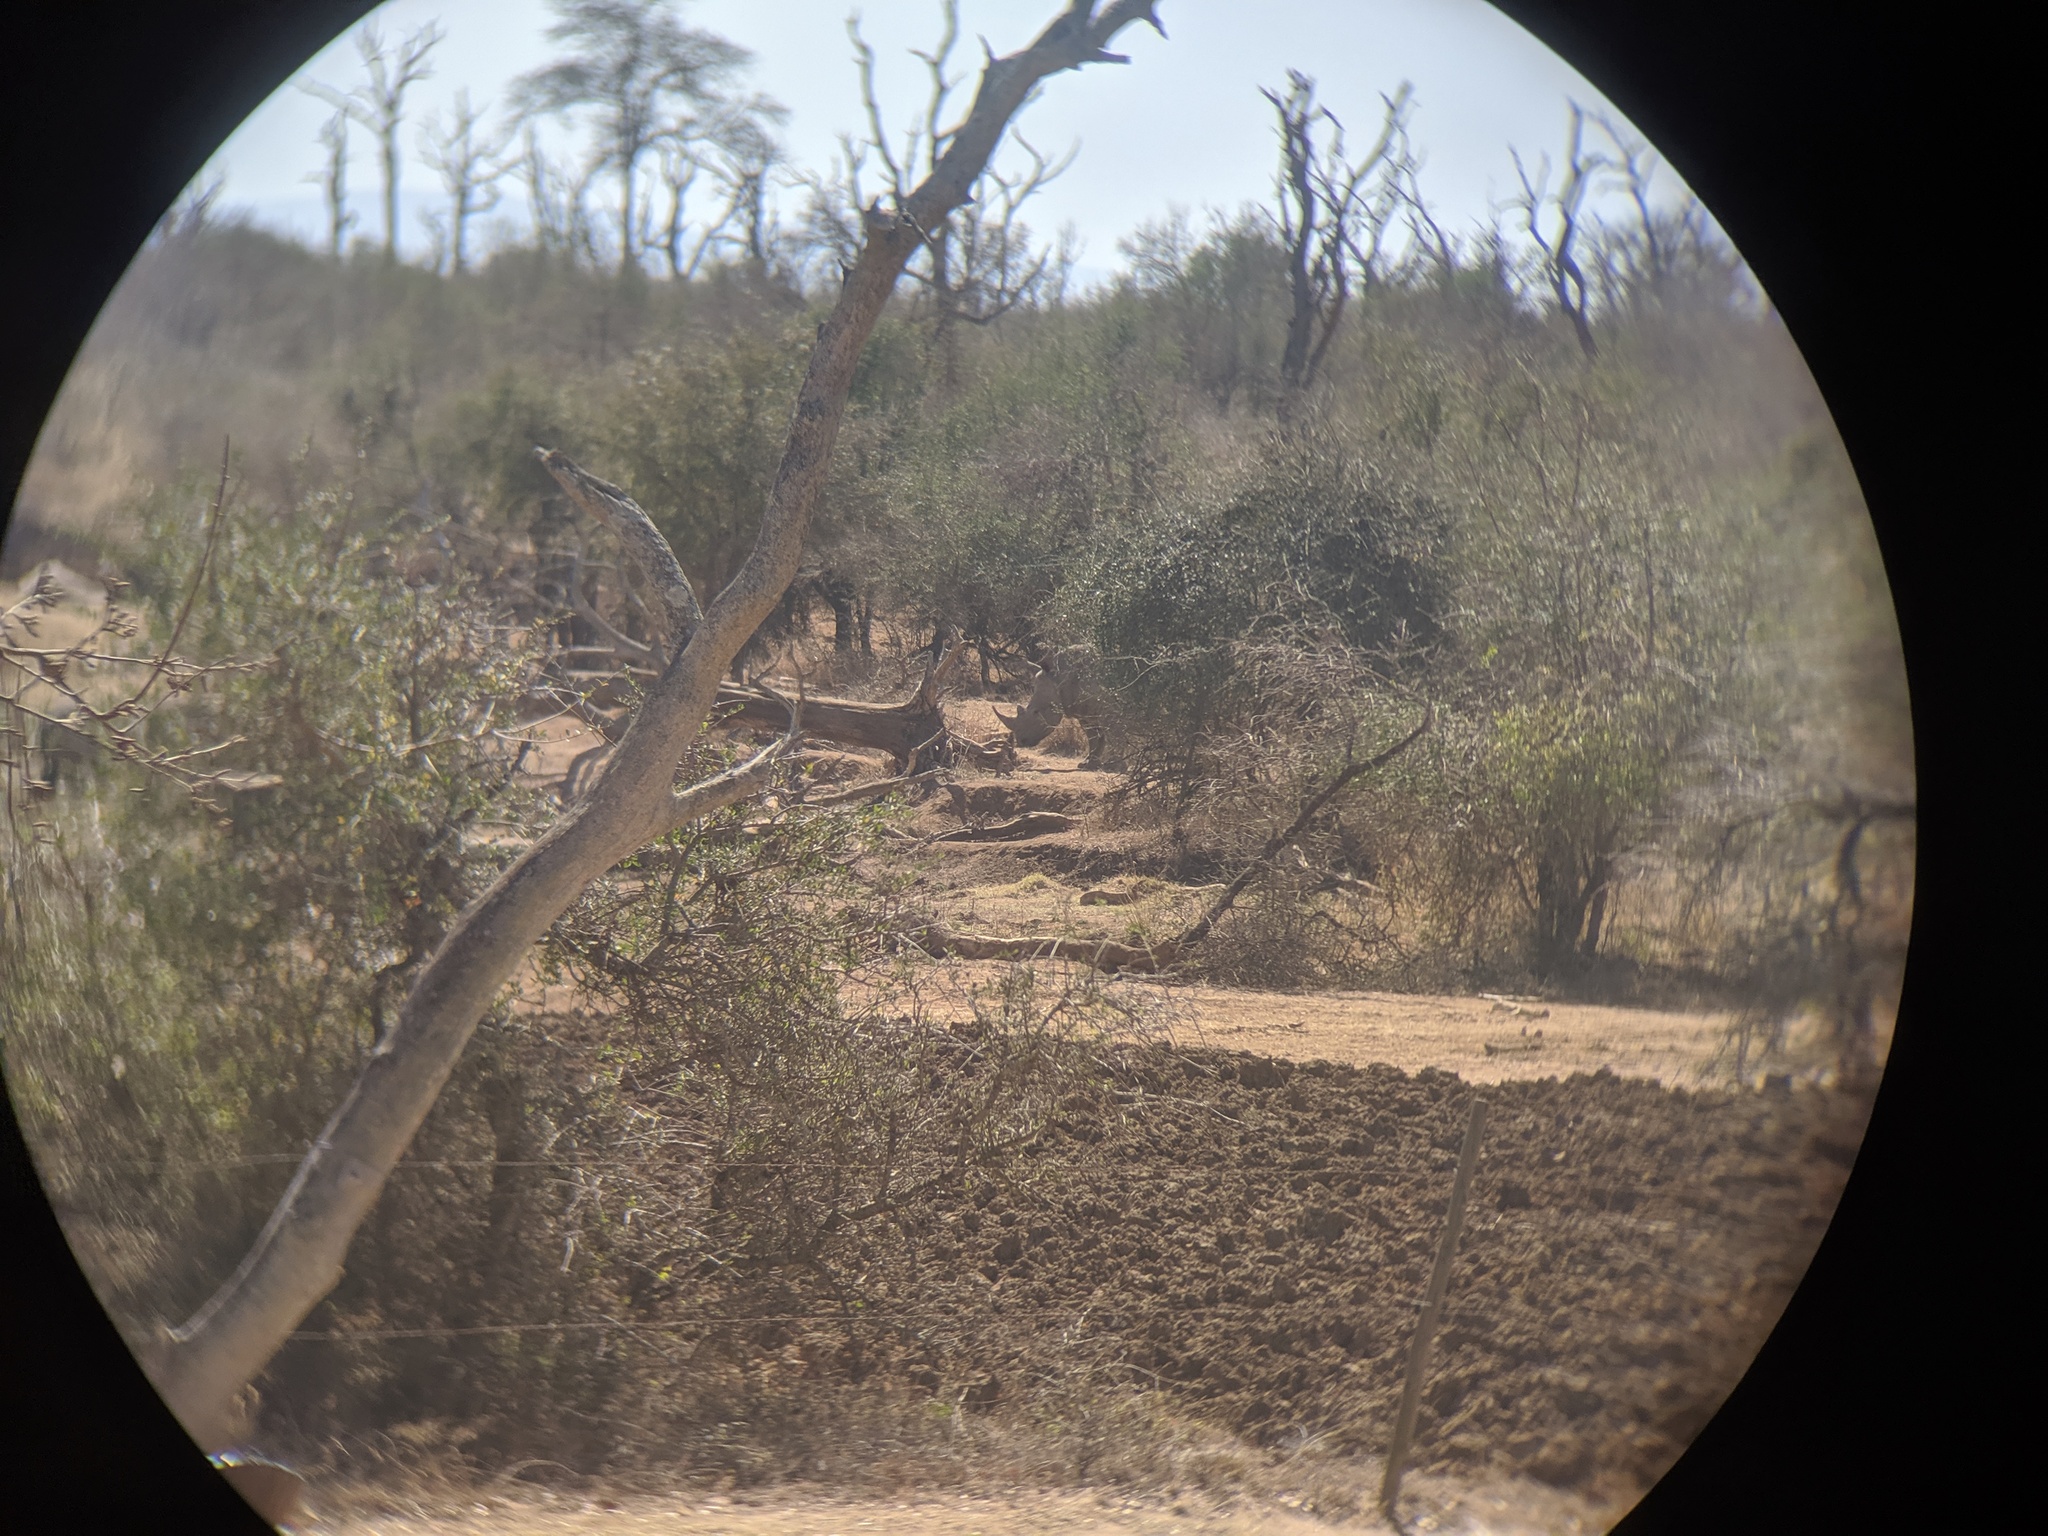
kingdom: Animalia
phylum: Chordata
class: Mammalia
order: Perissodactyla
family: Rhinocerotidae
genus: Ceratotherium
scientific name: Ceratotherium simum
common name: White rhinoceros
